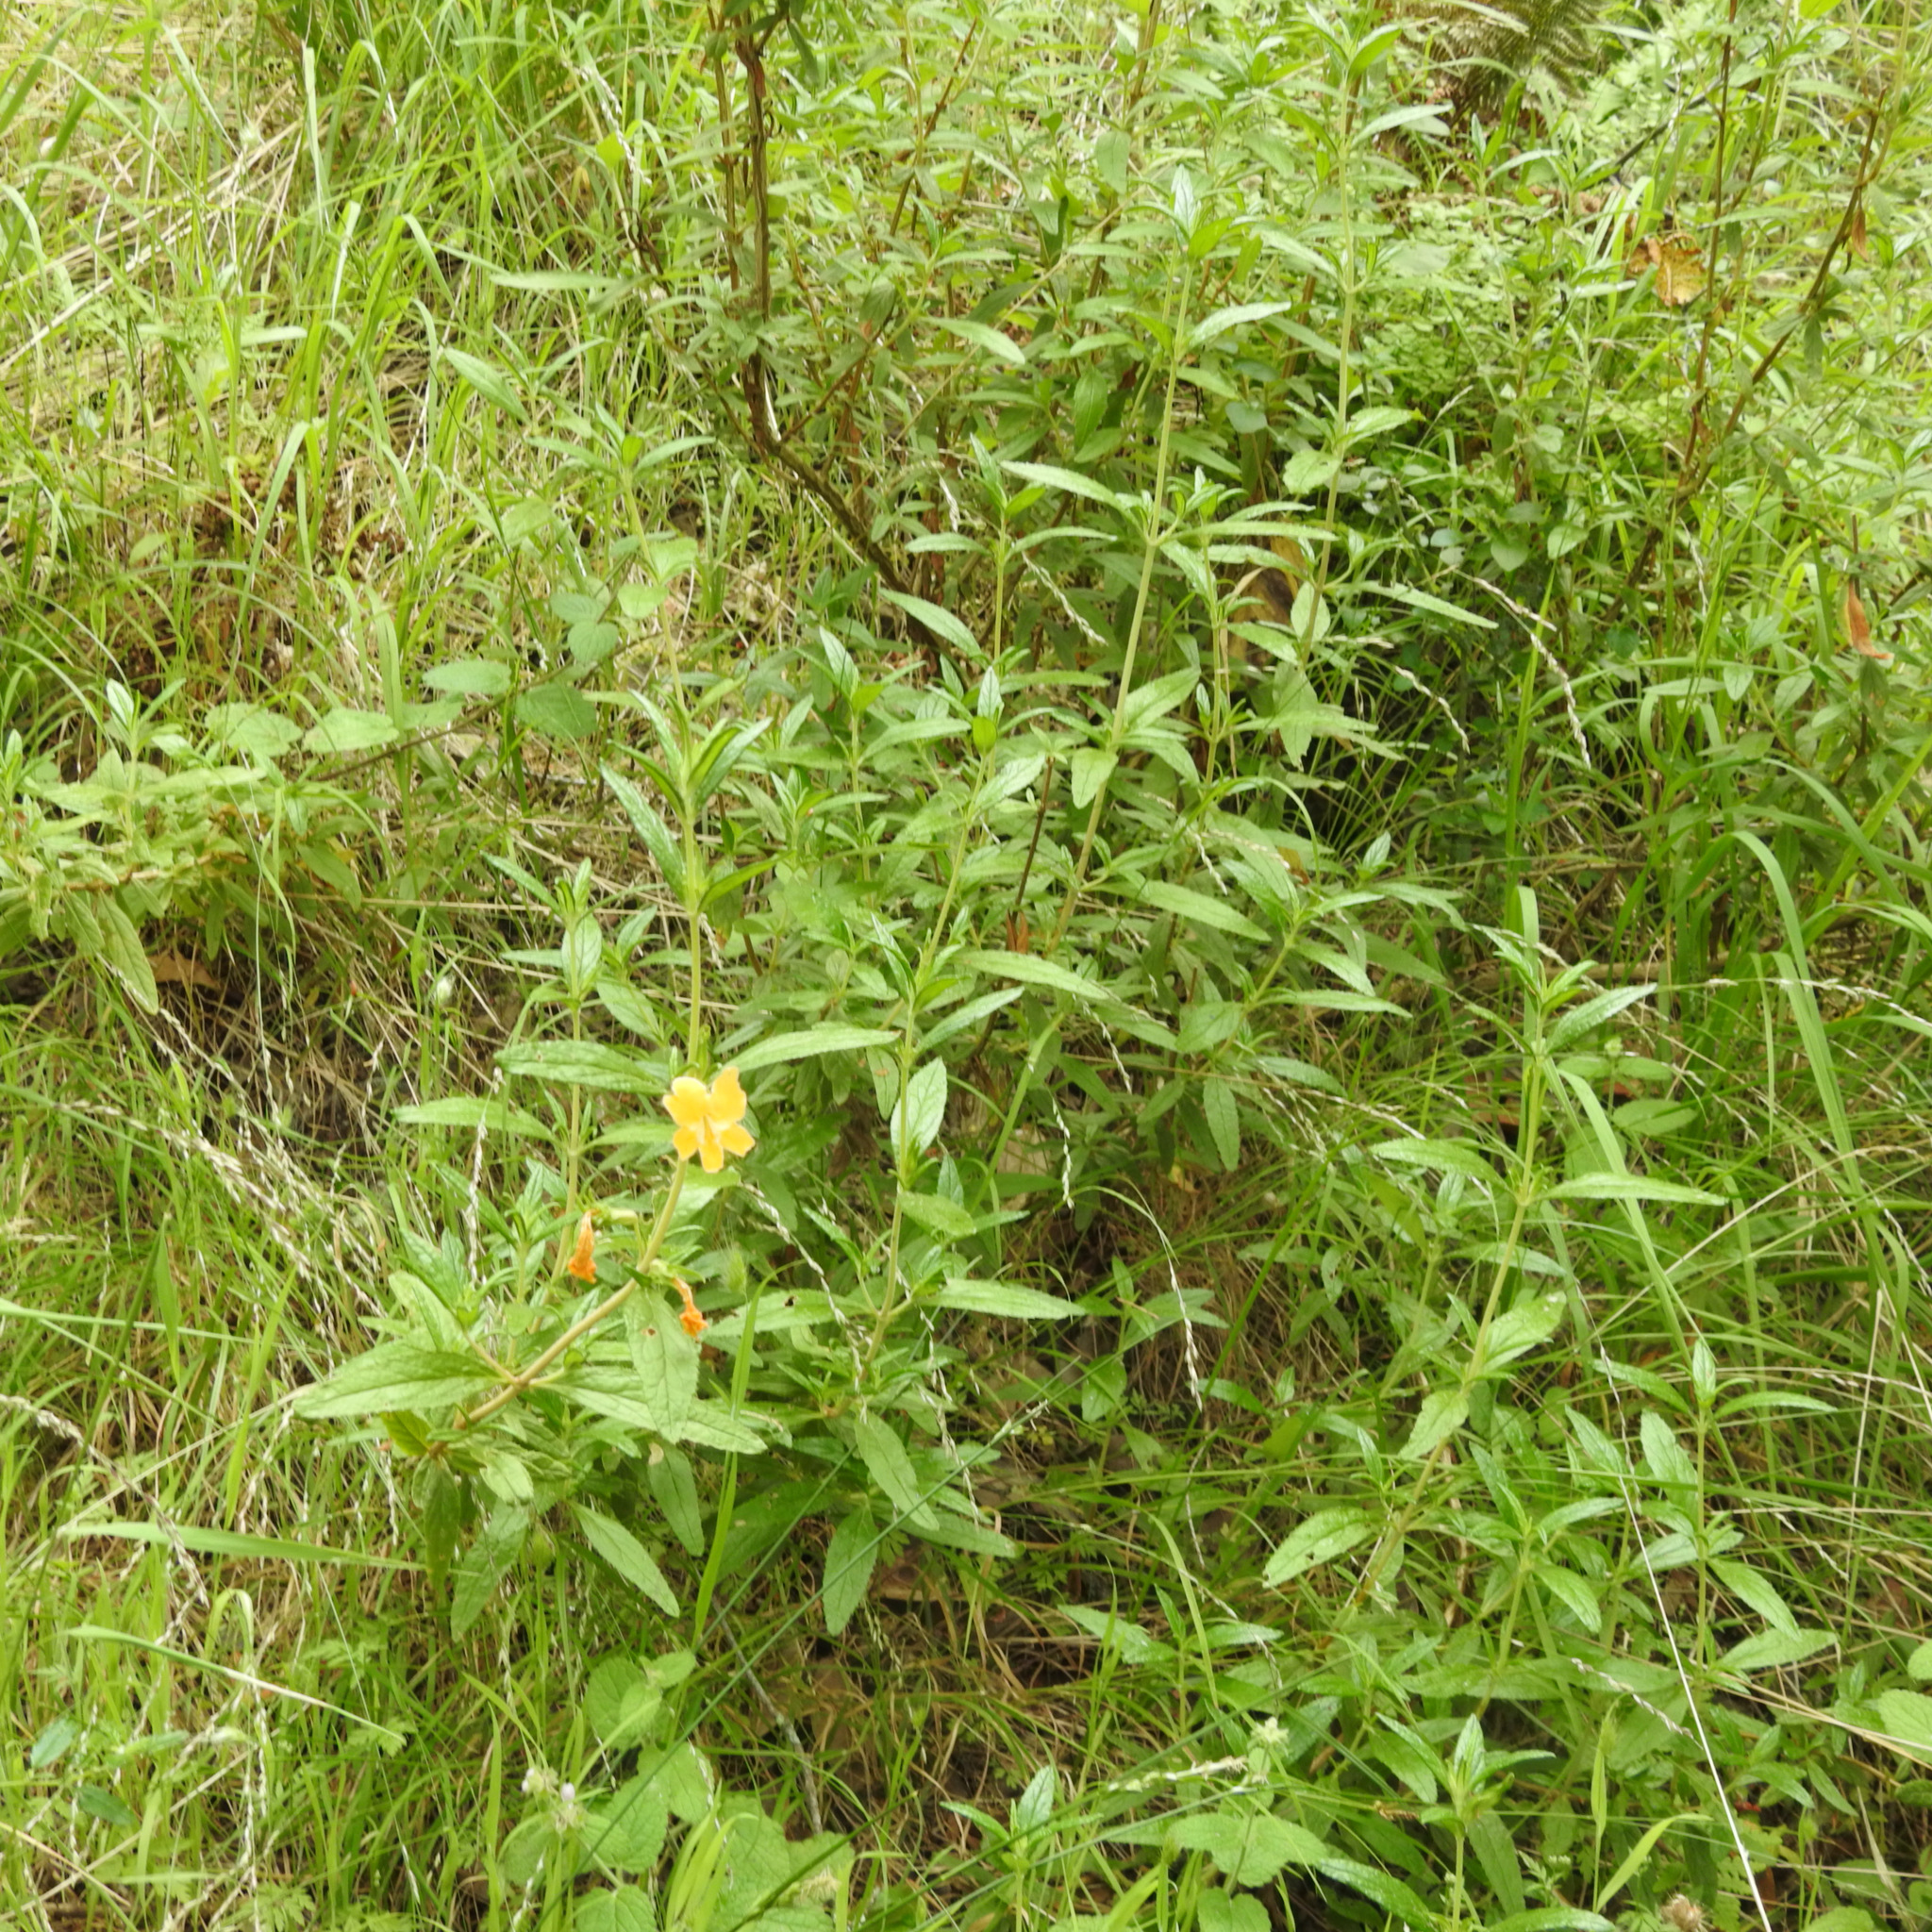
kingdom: Plantae
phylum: Tracheophyta
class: Magnoliopsida
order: Lamiales
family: Phrymaceae
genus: Diplacus
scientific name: Diplacus aurantiacus
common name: Bush monkey-flower
